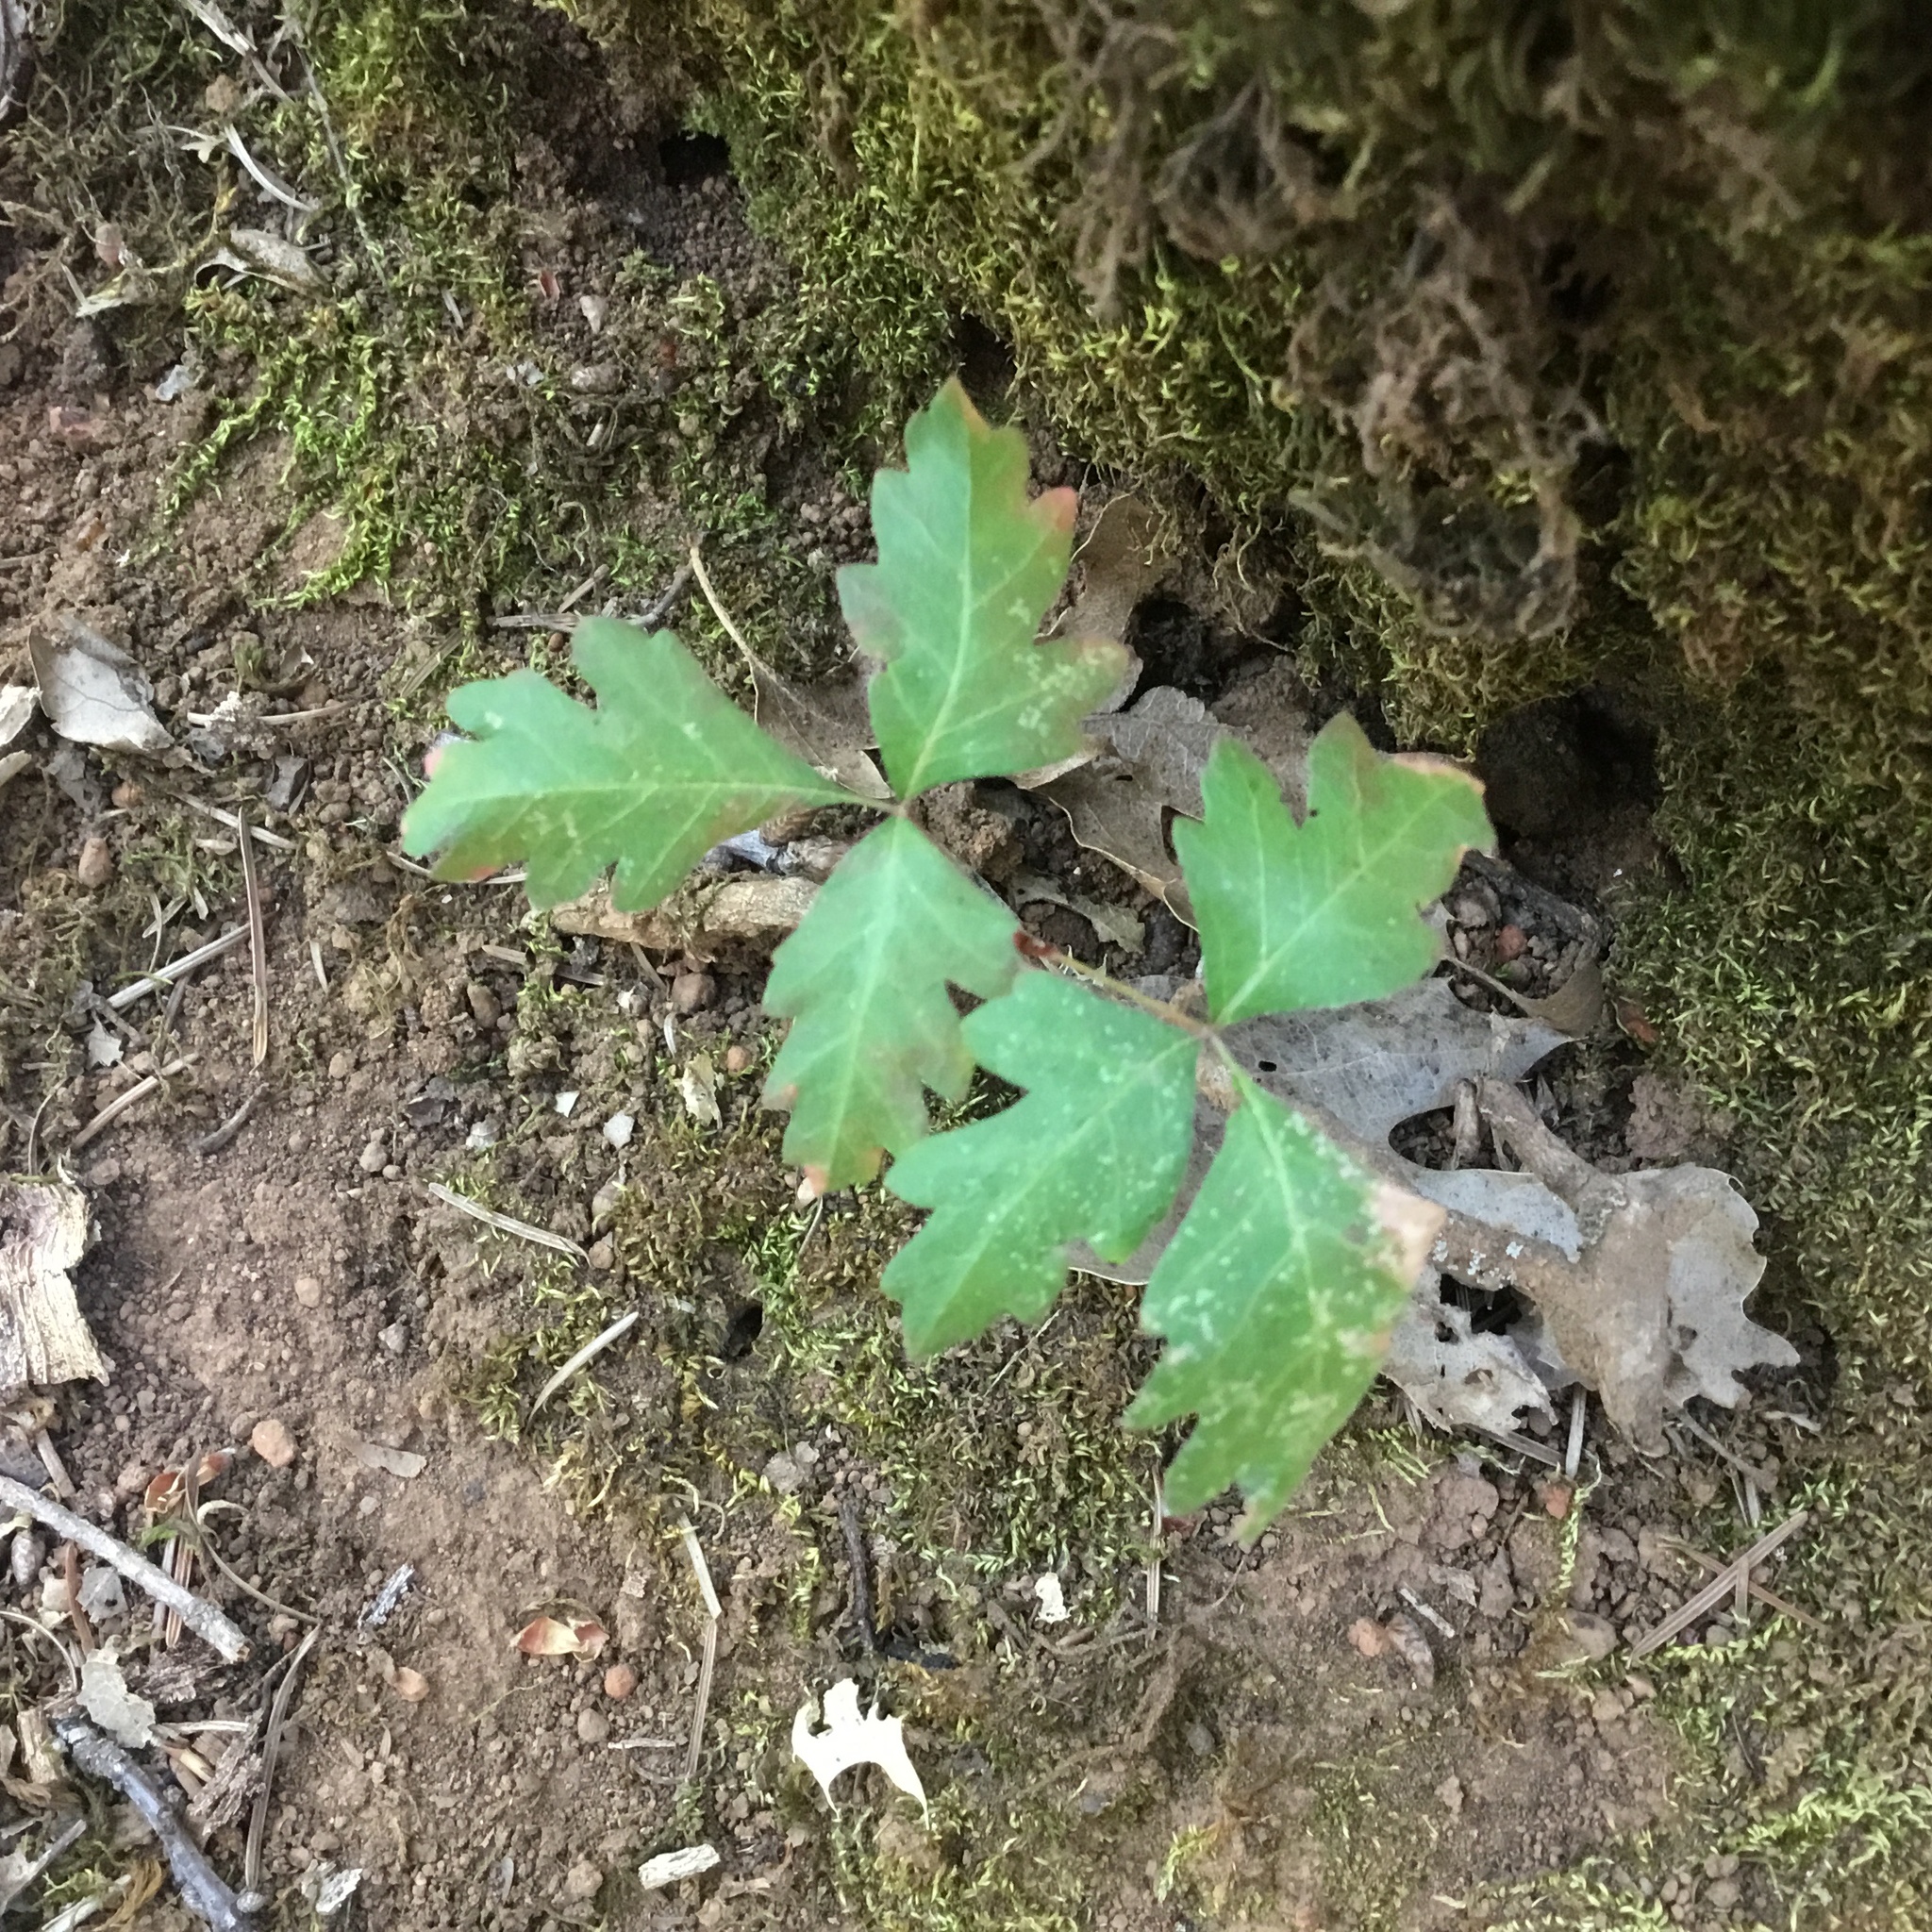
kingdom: Plantae
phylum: Tracheophyta
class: Magnoliopsida
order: Sapindales
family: Anacardiaceae
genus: Toxicodendron
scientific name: Toxicodendron diversilobum
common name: Pacific poison-oak
